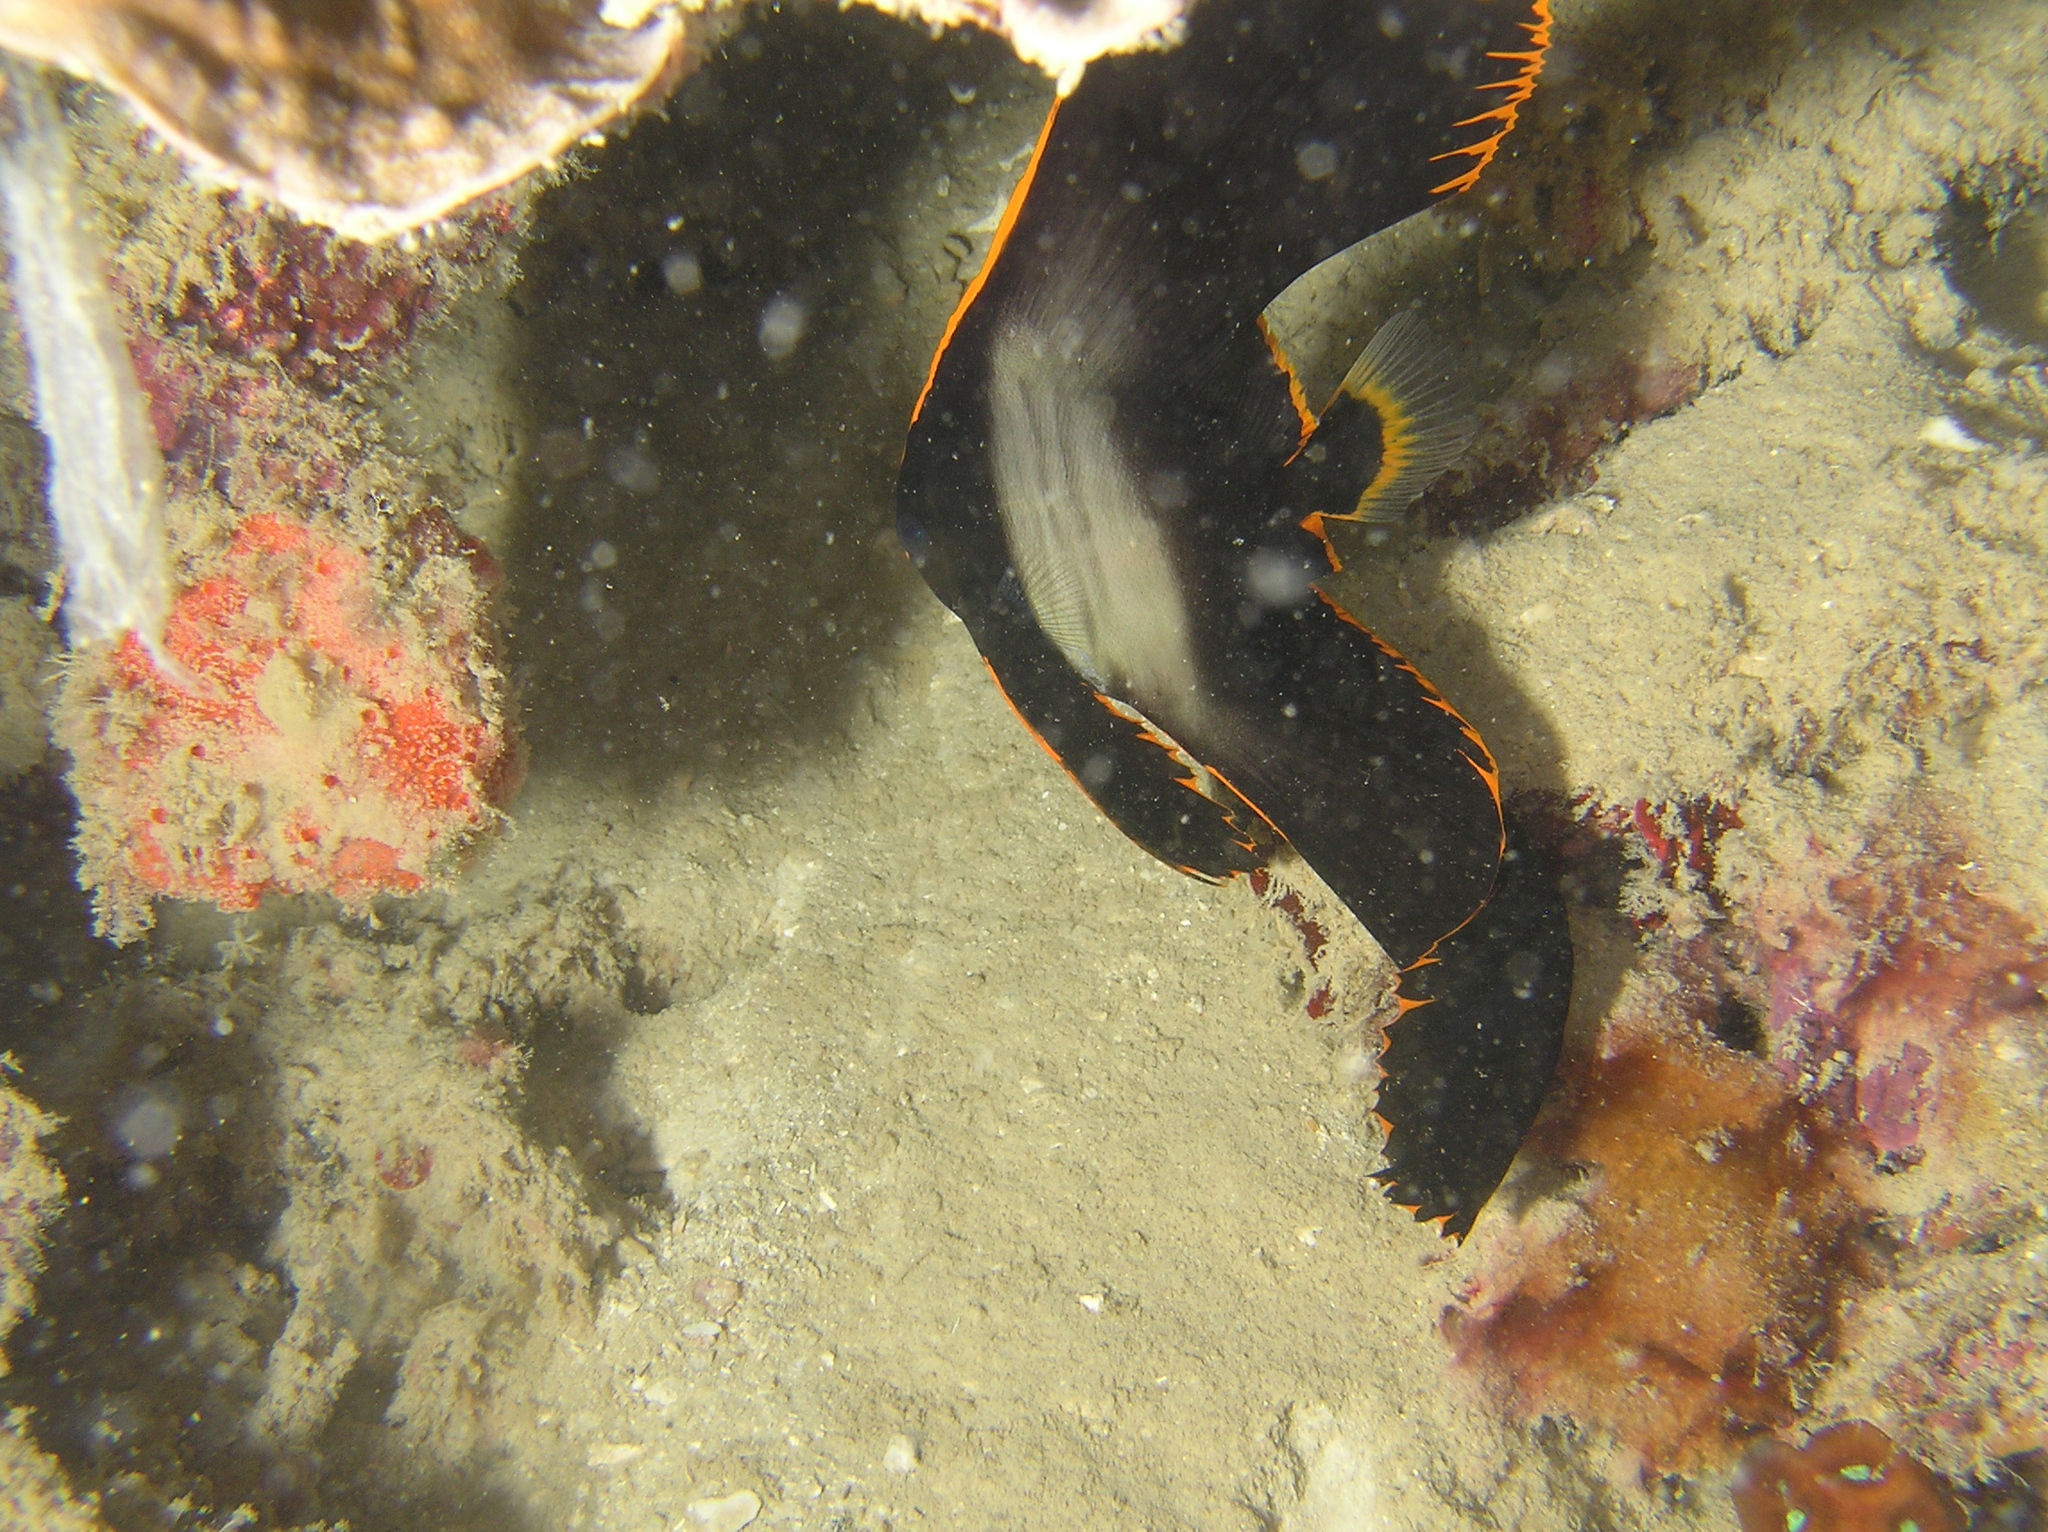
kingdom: Animalia
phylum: Chordata
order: Perciformes
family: Ephippidae
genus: Platax
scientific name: Platax pinnatus
